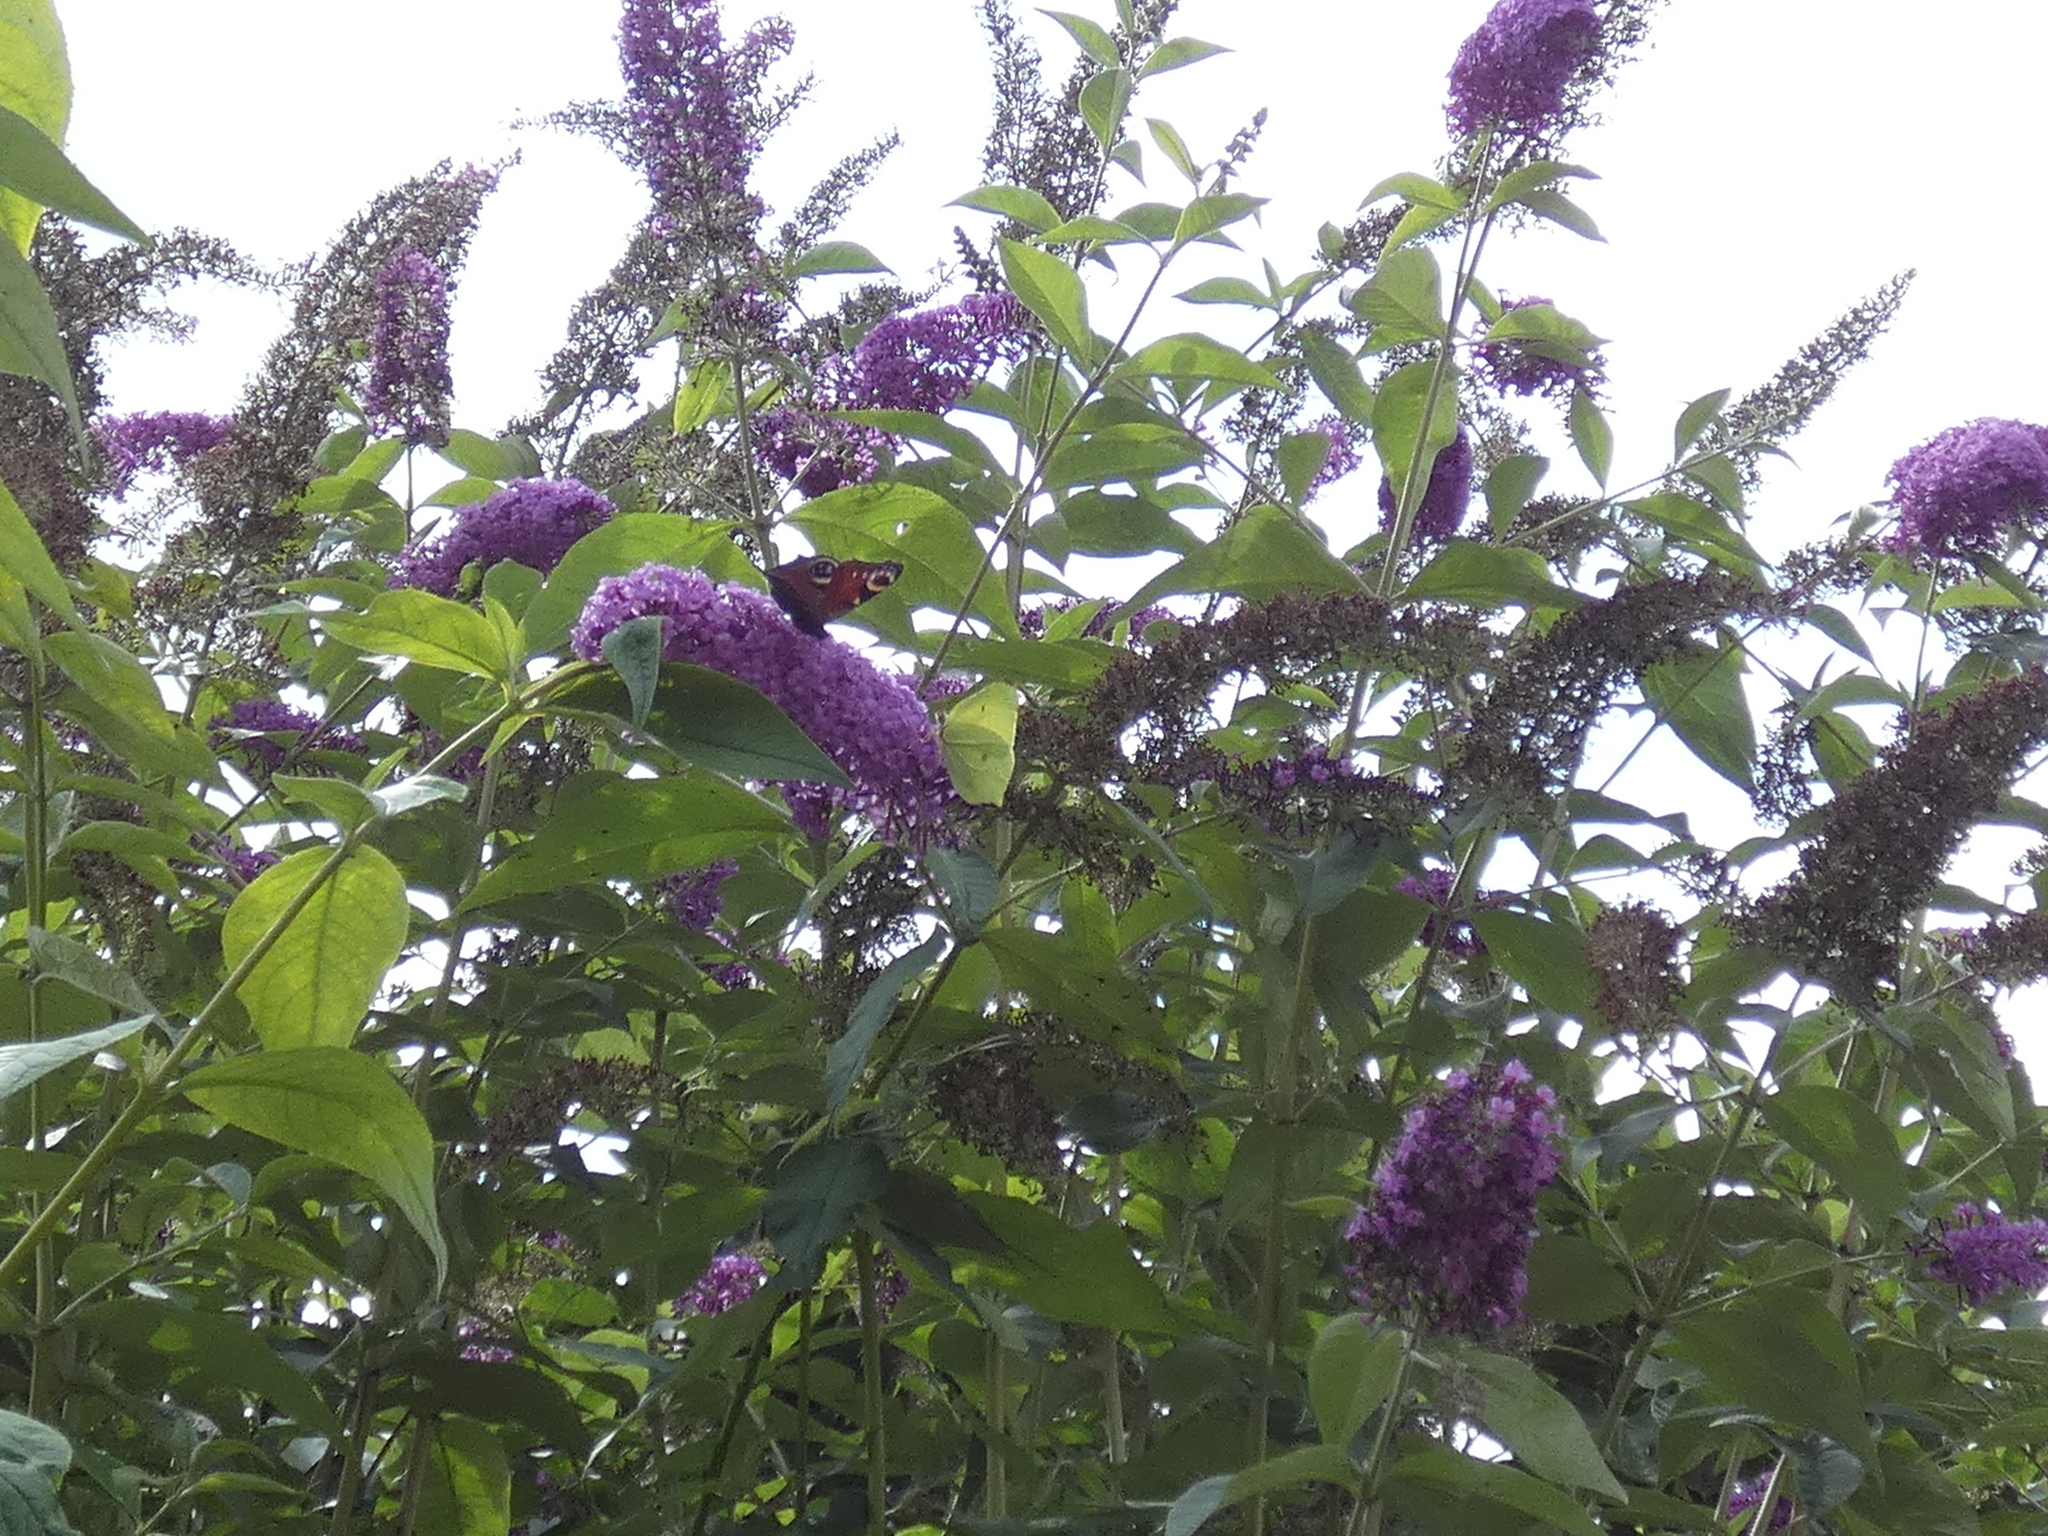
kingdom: Animalia
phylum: Arthropoda
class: Insecta
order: Lepidoptera
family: Pieridae
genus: Gonepteryx
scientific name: Gonepteryx rhamni
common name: Brimstone
